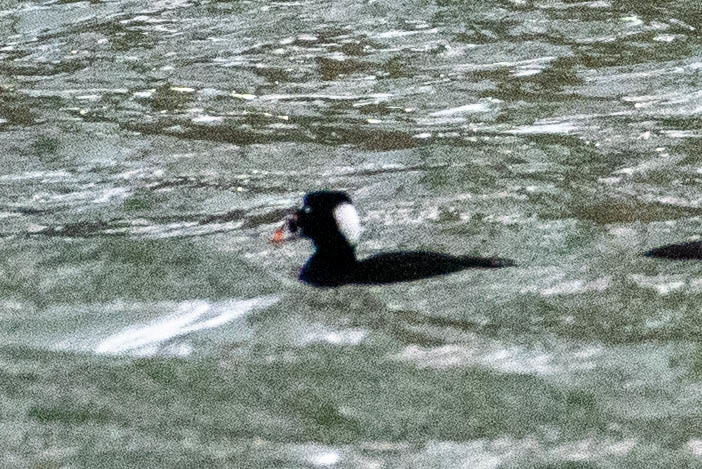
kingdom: Animalia
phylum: Chordata
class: Aves
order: Anseriformes
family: Anatidae
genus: Melanitta
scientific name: Melanitta perspicillata
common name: Surf scoter
